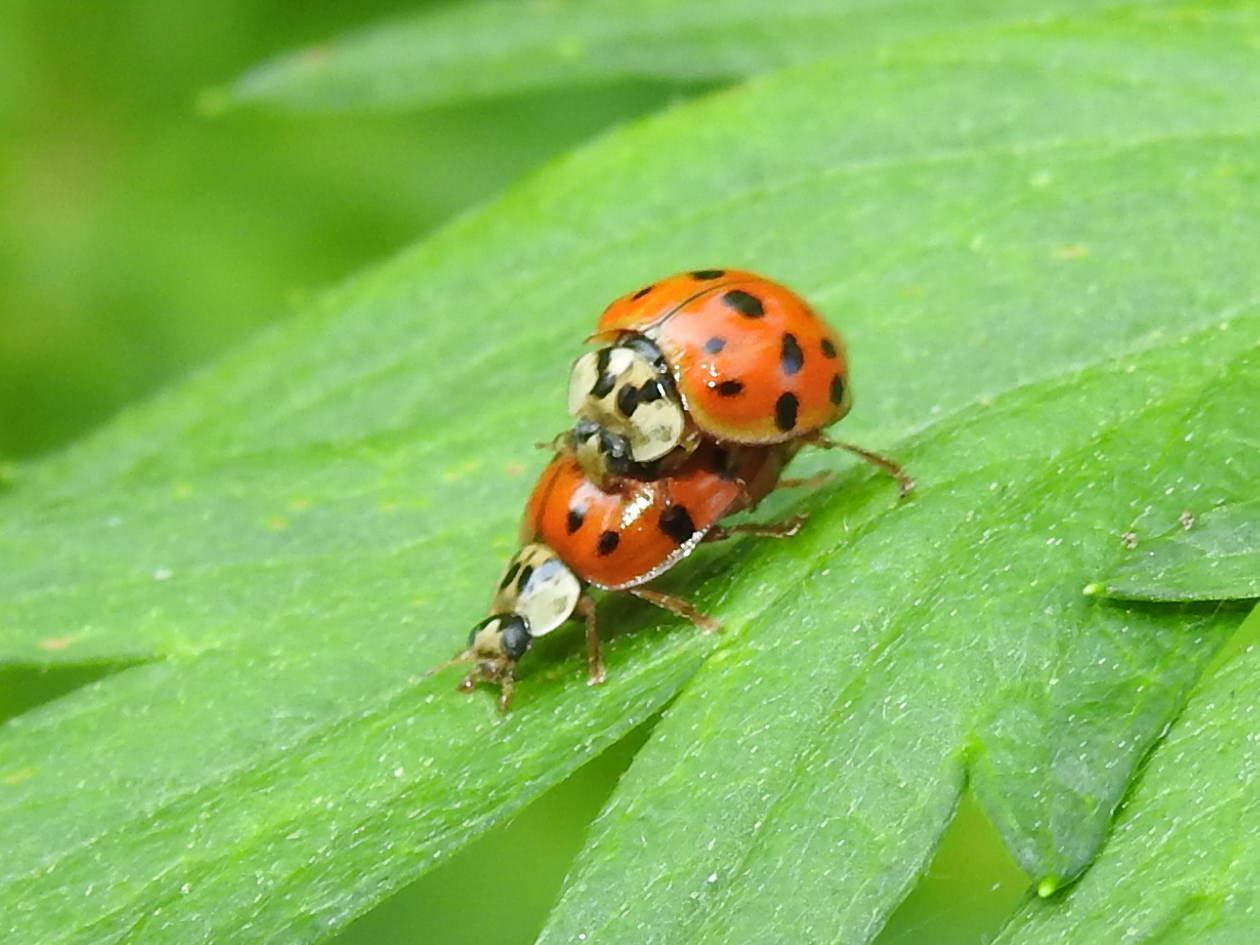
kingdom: Animalia
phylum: Arthropoda
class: Insecta
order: Coleoptera
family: Coccinellidae
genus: Harmonia
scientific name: Harmonia axyridis
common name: Harlequin ladybird
